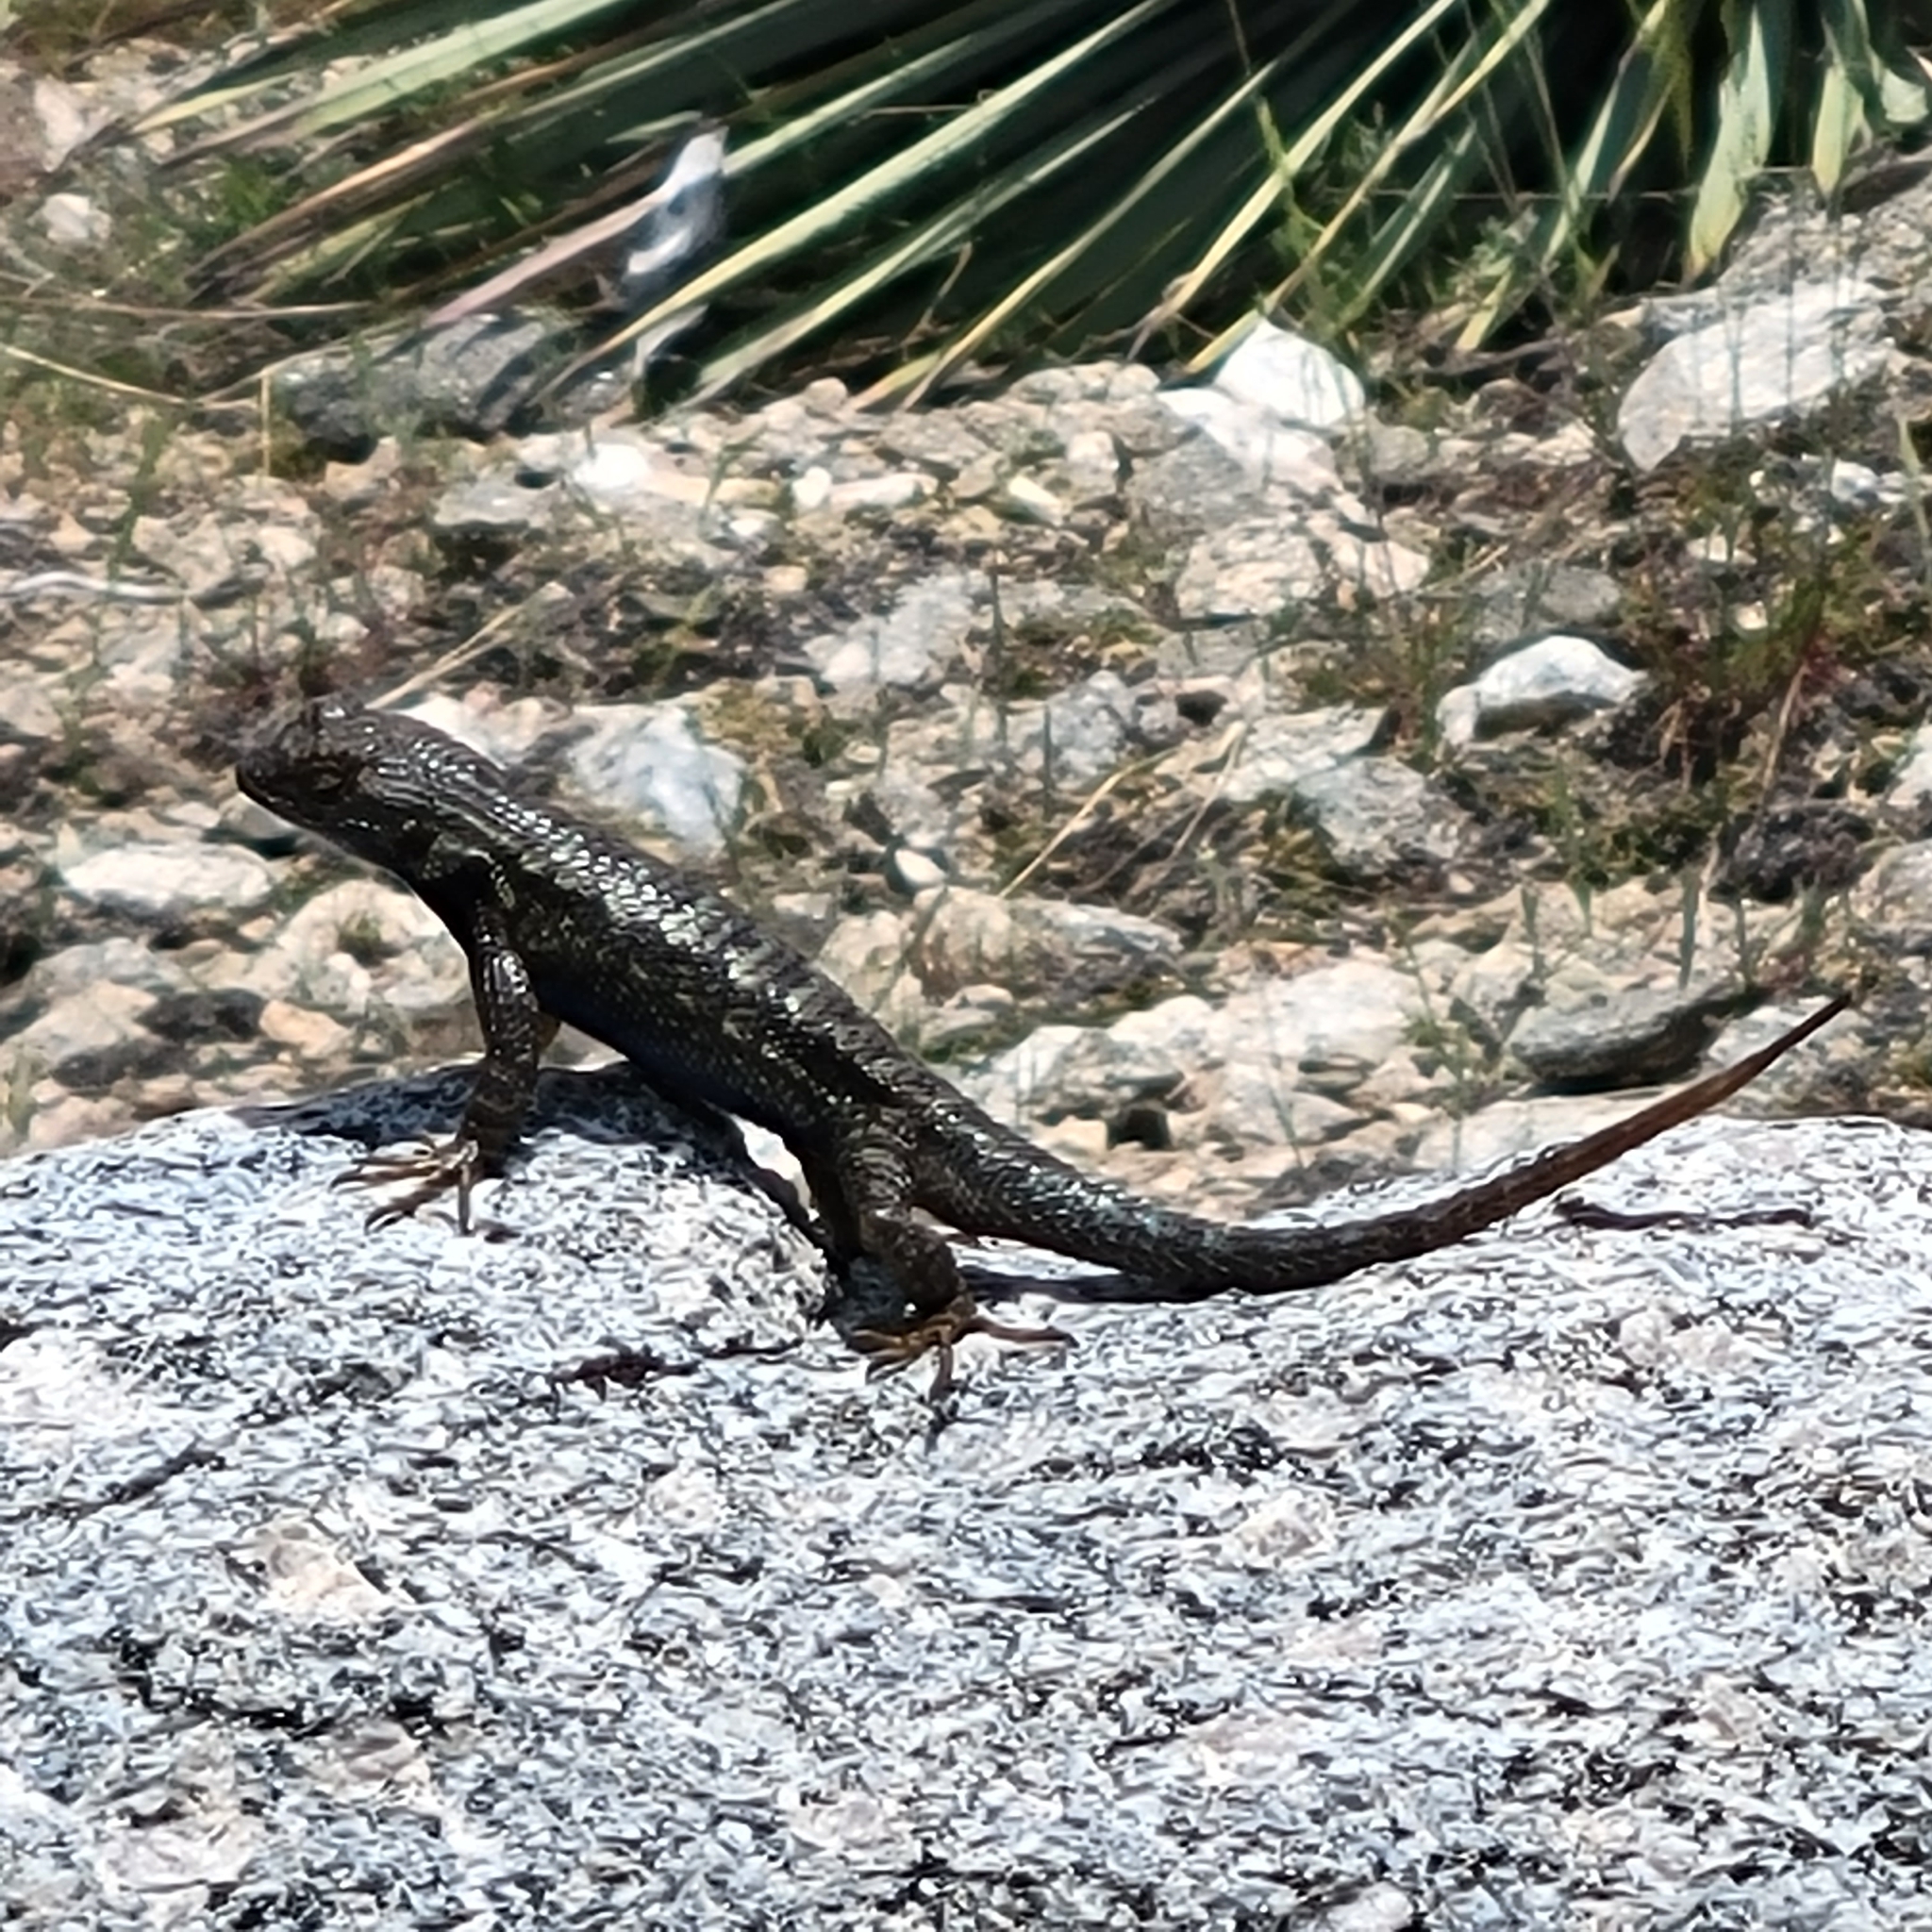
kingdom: Animalia
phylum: Chordata
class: Squamata
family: Phrynosomatidae
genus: Sceloporus
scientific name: Sceloporus occidentalis
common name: Western fence lizard
